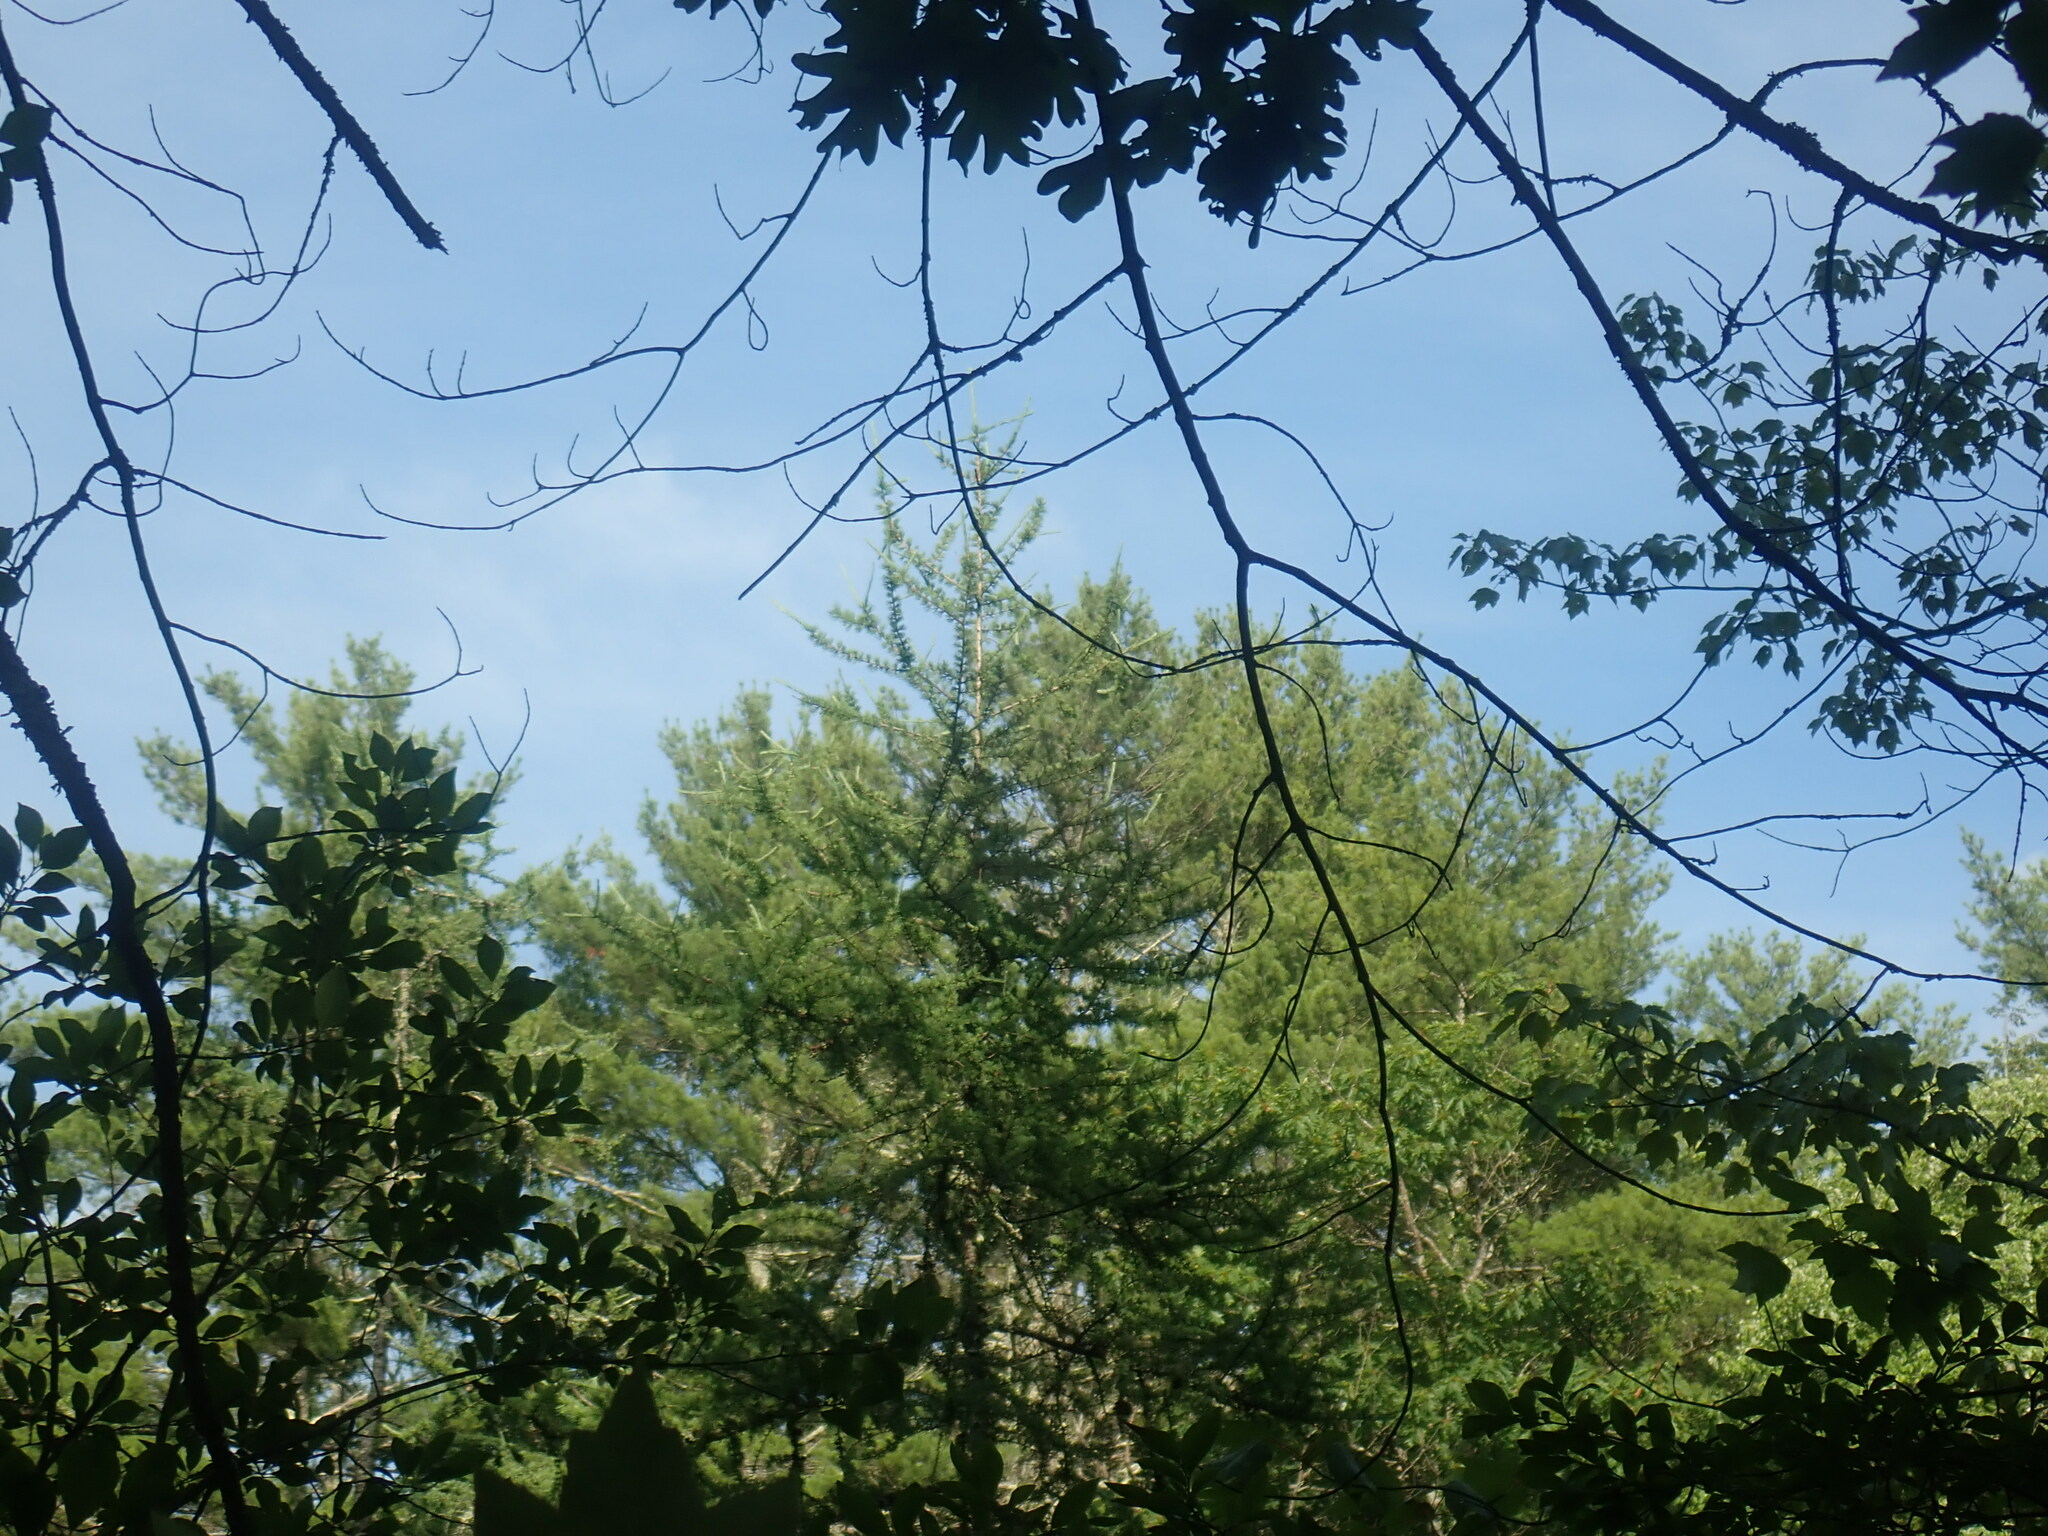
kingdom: Plantae
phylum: Tracheophyta
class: Pinopsida
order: Pinales
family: Pinaceae
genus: Larix
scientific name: Larix laricina
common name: American larch
